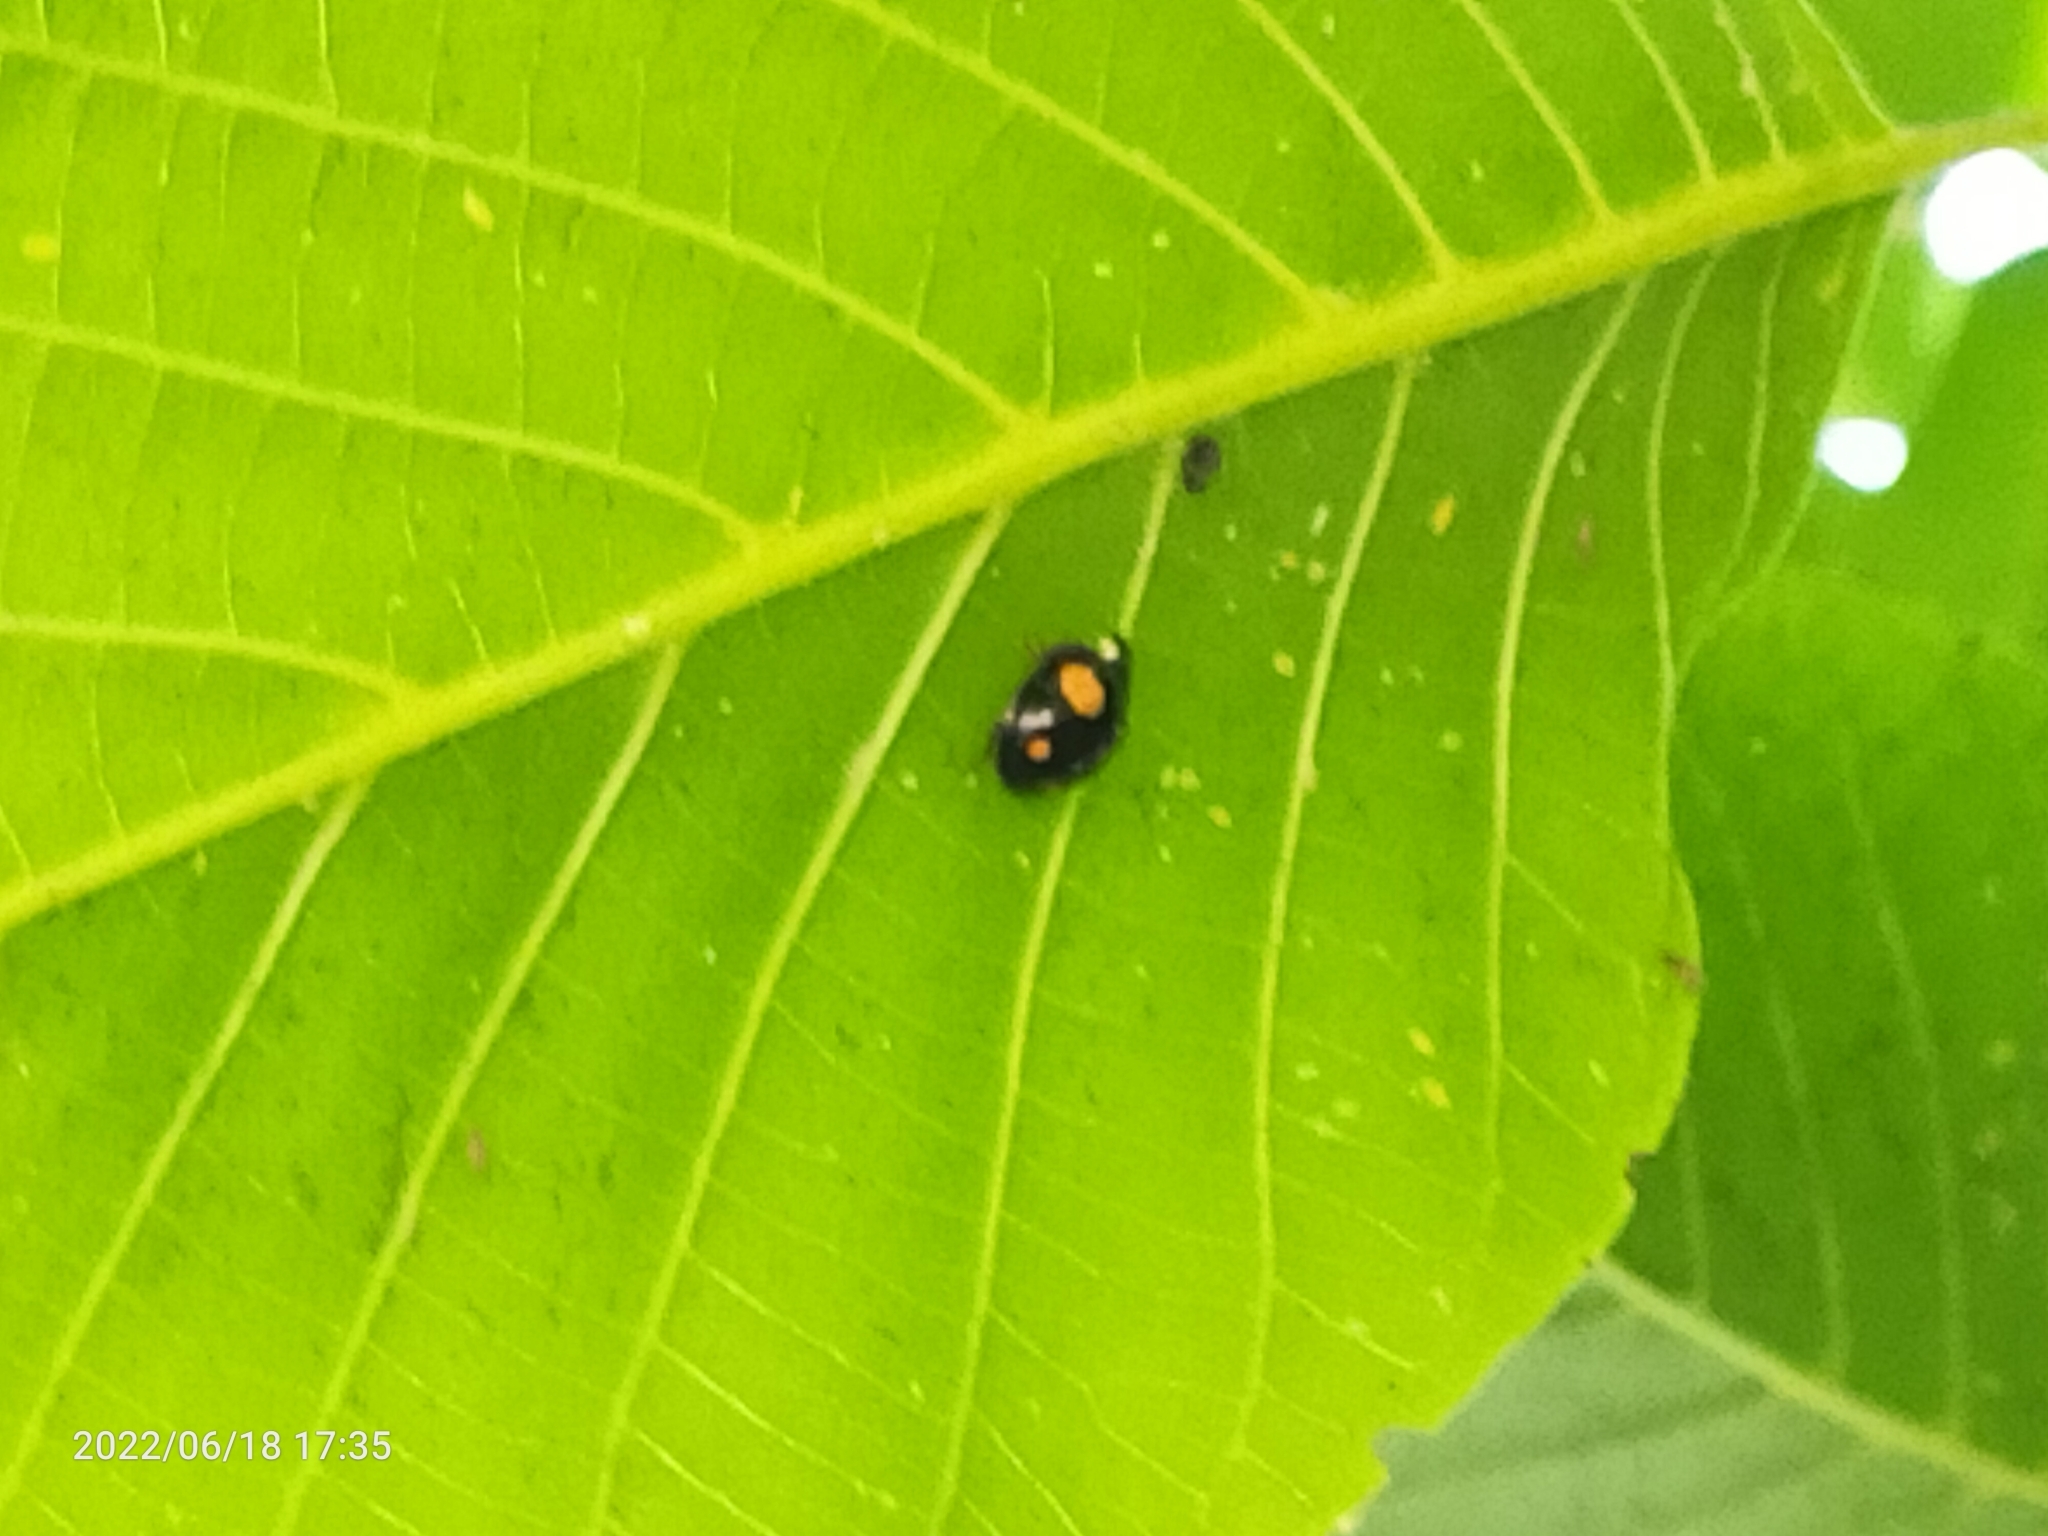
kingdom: Animalia
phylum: Arthropoda
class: Insecta
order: Coleoptera
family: Coccinellidae
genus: Harmonia
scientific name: Harmonia axyridis
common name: Harlequin ladybird
